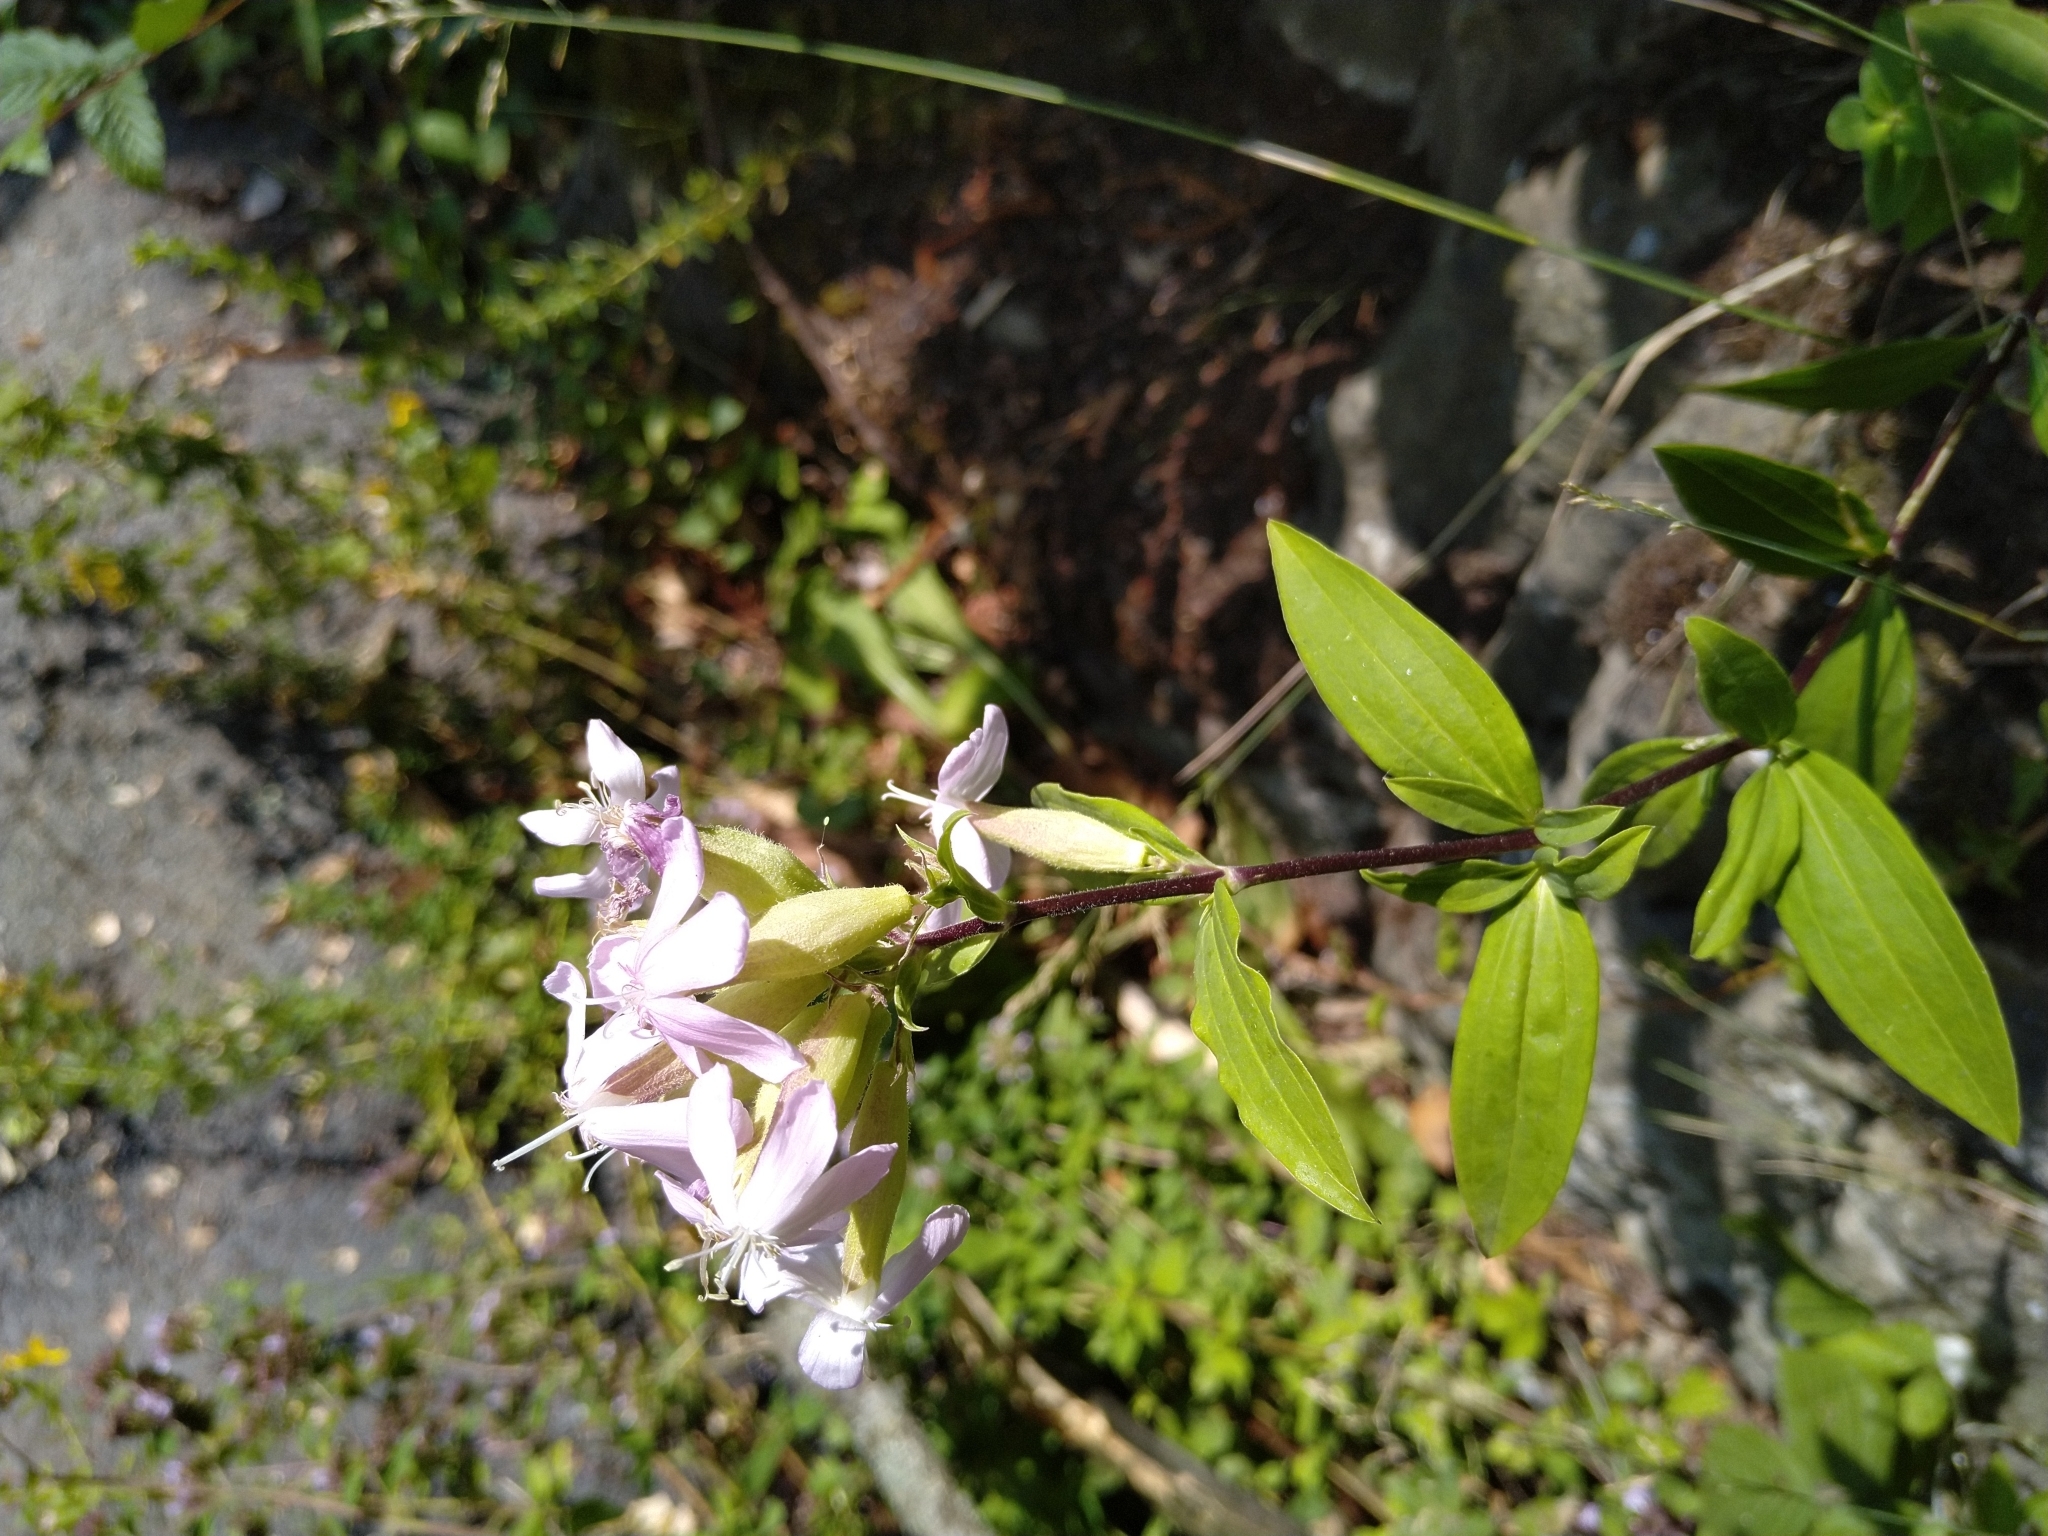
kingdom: Plantae
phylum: Tracheophyta
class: Magnoliopsida
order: Caryophyllales
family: Caryophyllaceae
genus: Saponaria
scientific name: Saponaria officinalis
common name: Soapwort
